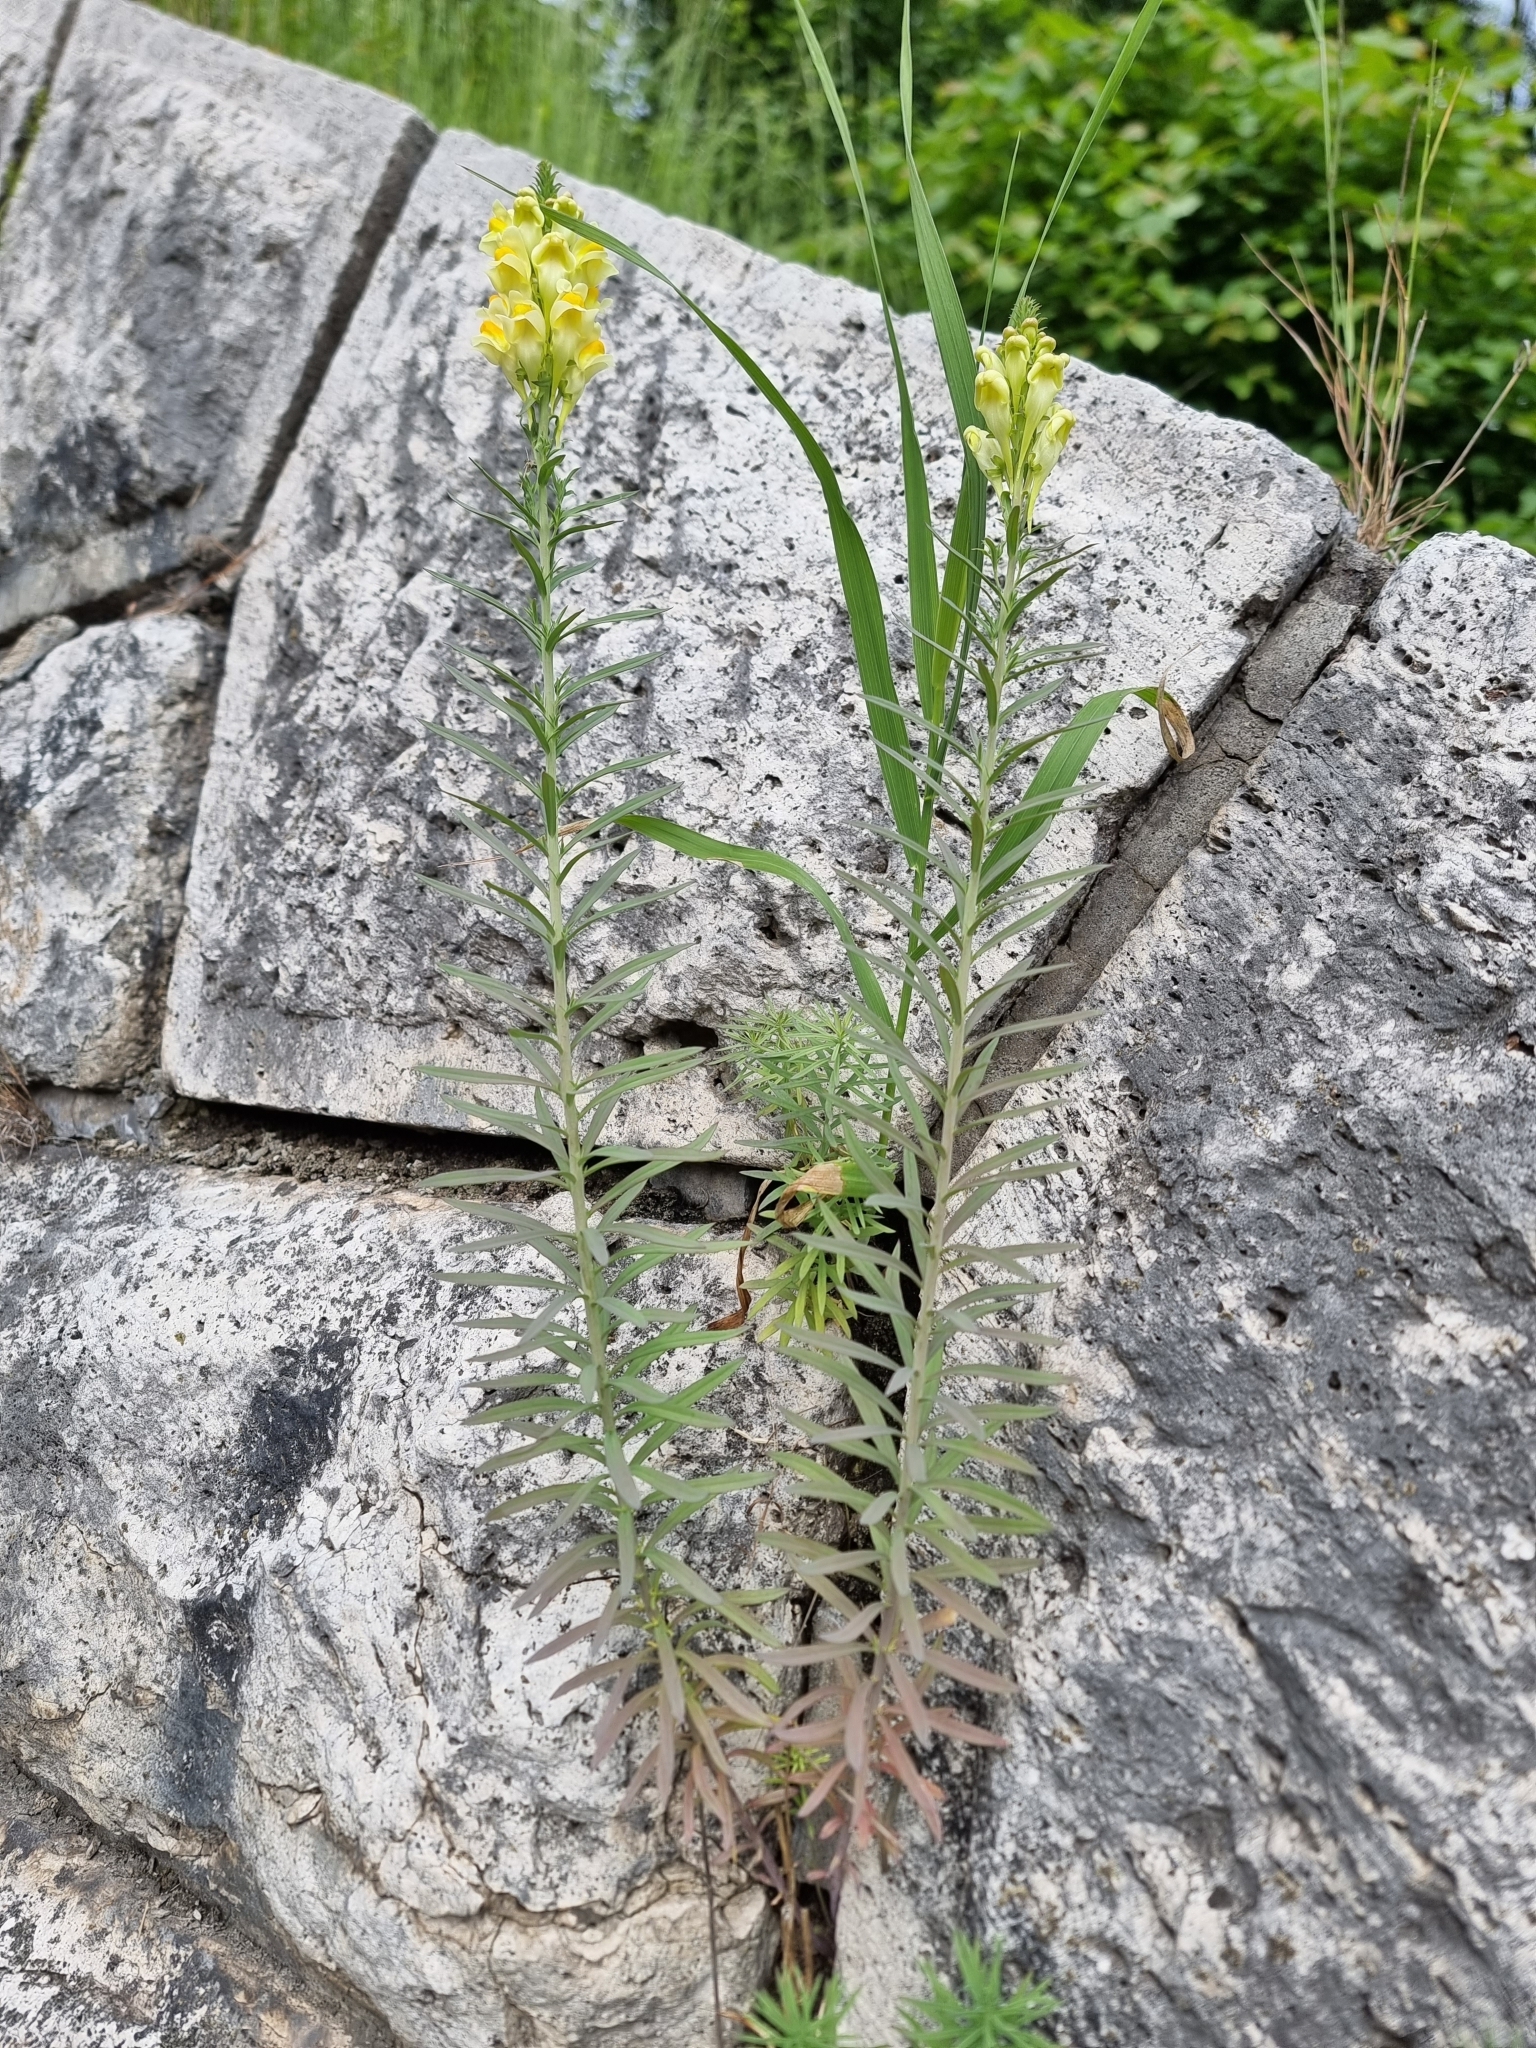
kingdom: Plantae
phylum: Tracheophyta
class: Magnoliopsida
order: Lamiales
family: Plantaginaceae
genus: Linaria
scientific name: Linaria vulgaris
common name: Butter and eggs
